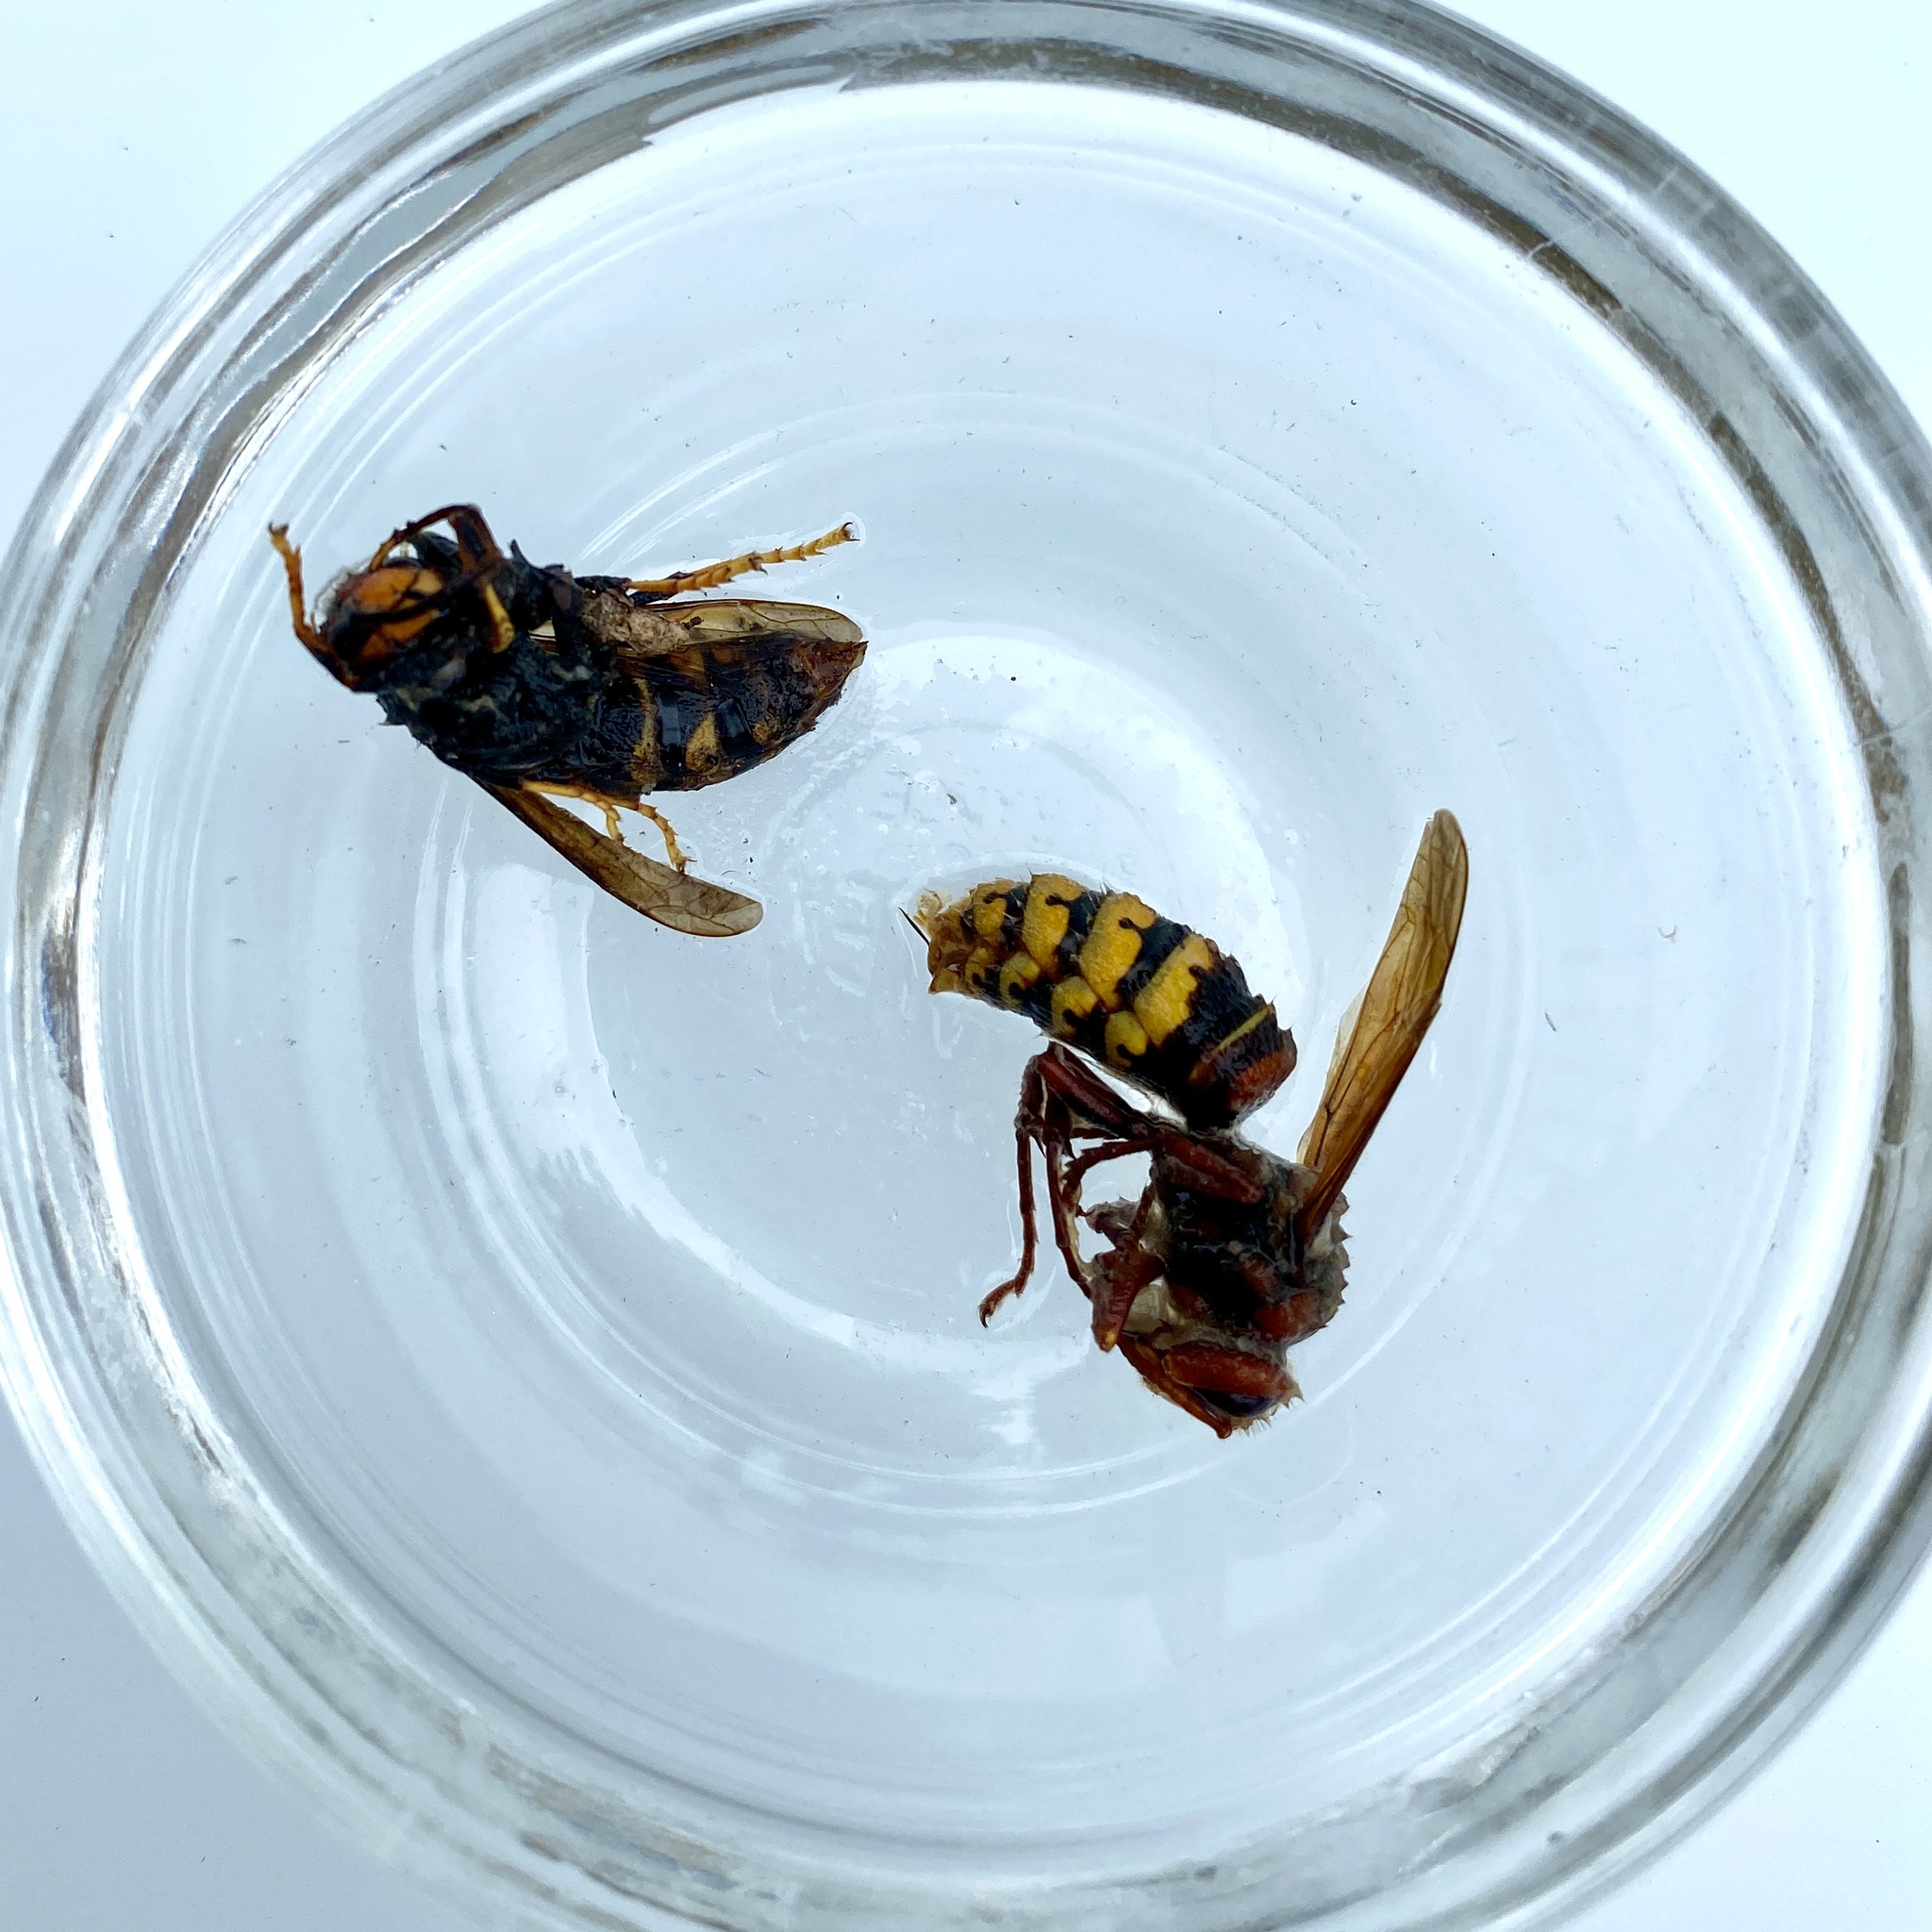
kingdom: Animalia
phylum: Arthropoda
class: Insecta
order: Hymenoptera
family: Vespidae
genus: Vespa
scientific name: Vespa crabro
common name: Hornet
